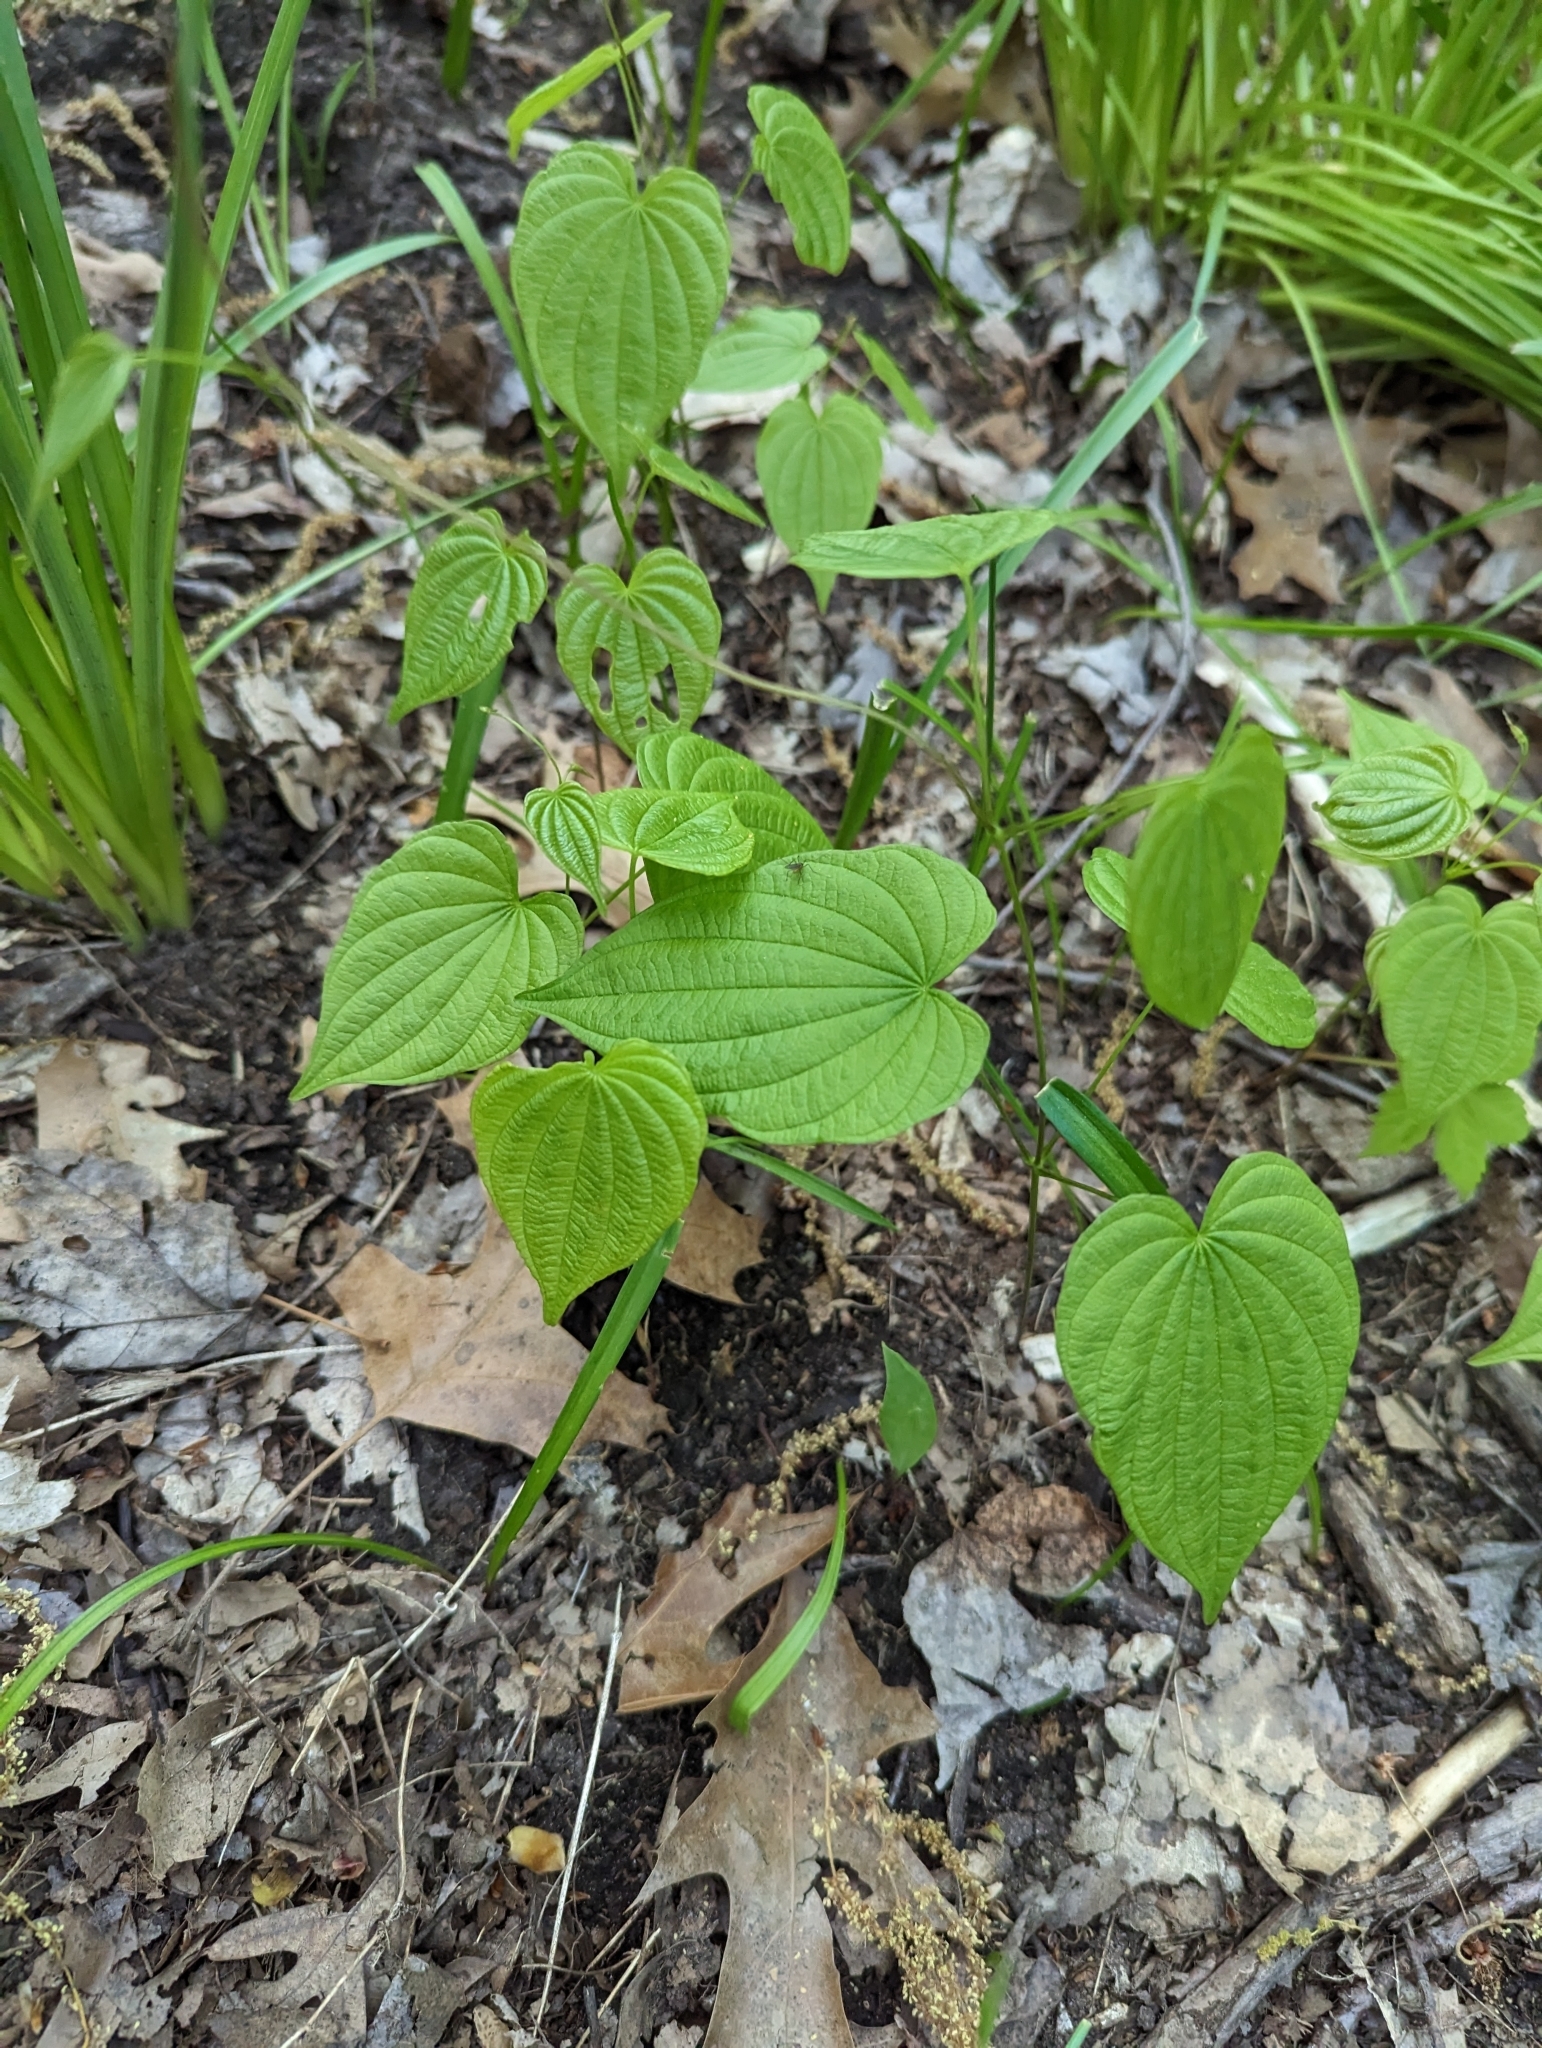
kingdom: Plantae
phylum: Tracheophyta
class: Liliopsida
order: Dioscoreales
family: Dioscoreaceae
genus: Dioscorea
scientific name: Dioscorea villosa
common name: Wild yam
